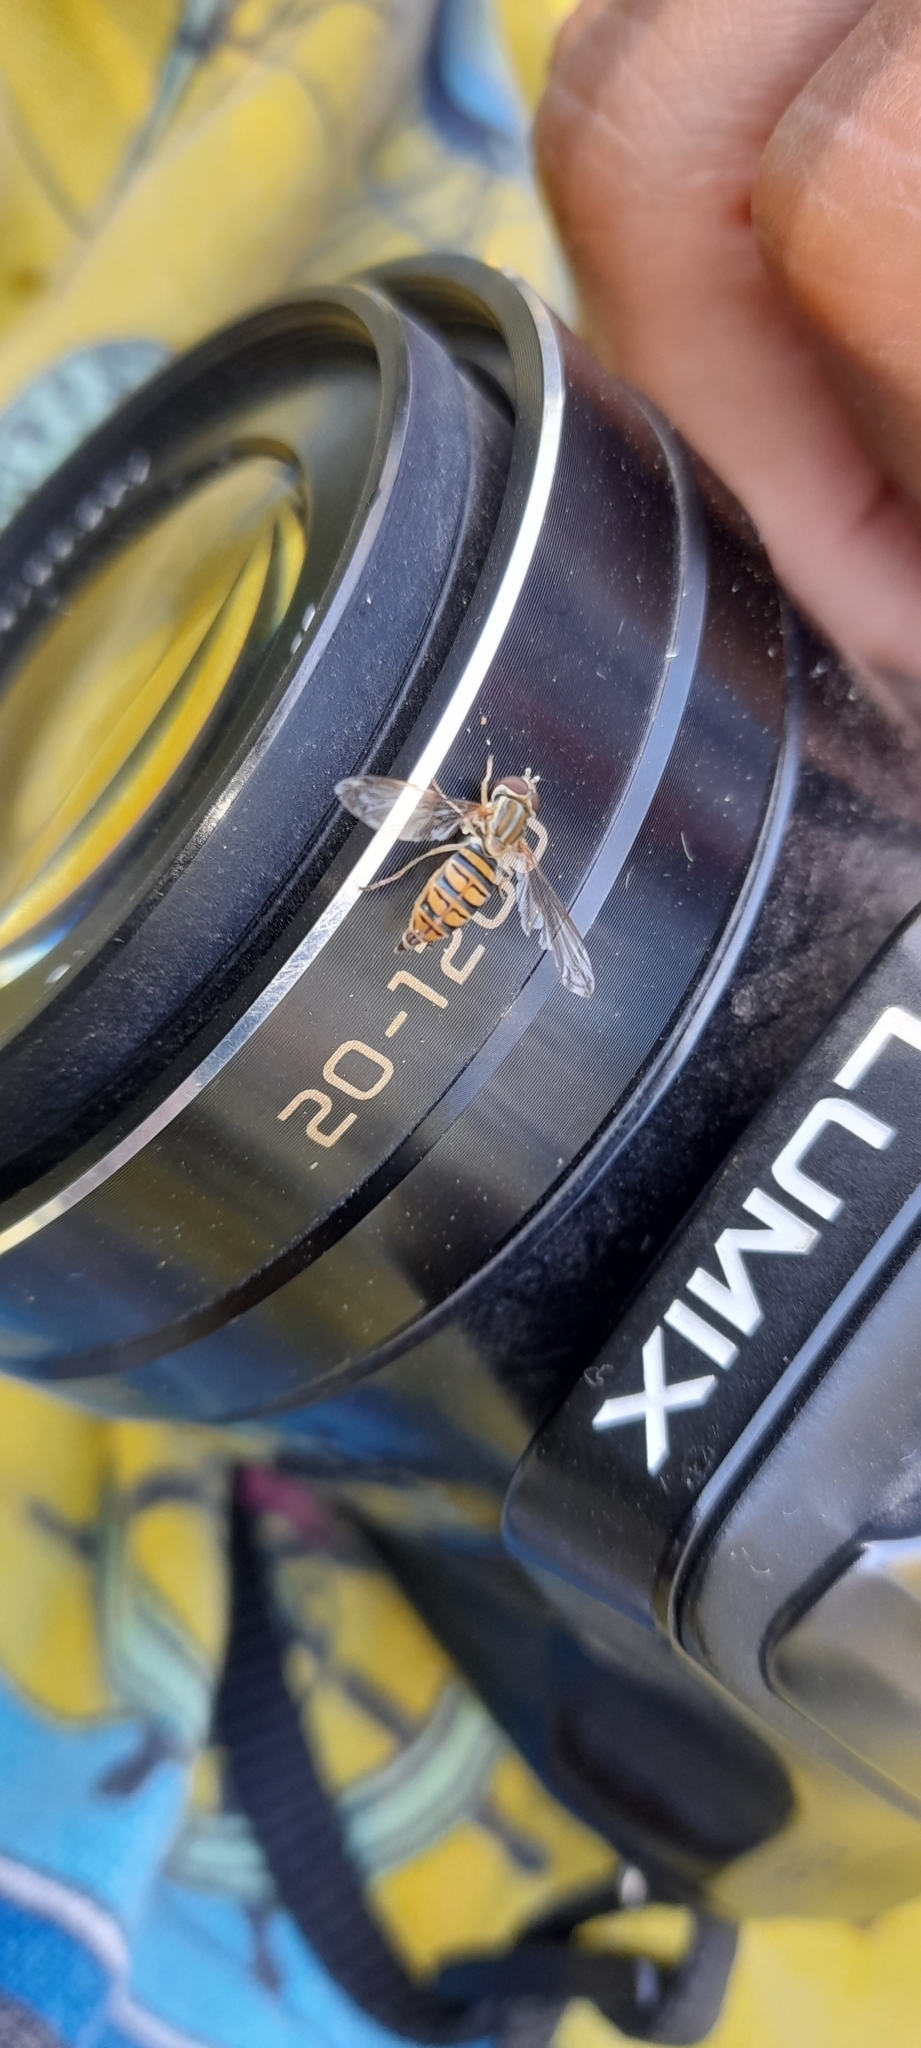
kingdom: Animalia
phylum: Arthropoda
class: Insecta
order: Diptera
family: Syrphidae
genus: Toxomerus
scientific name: Toxomerus politus
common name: Maize calligrapher
